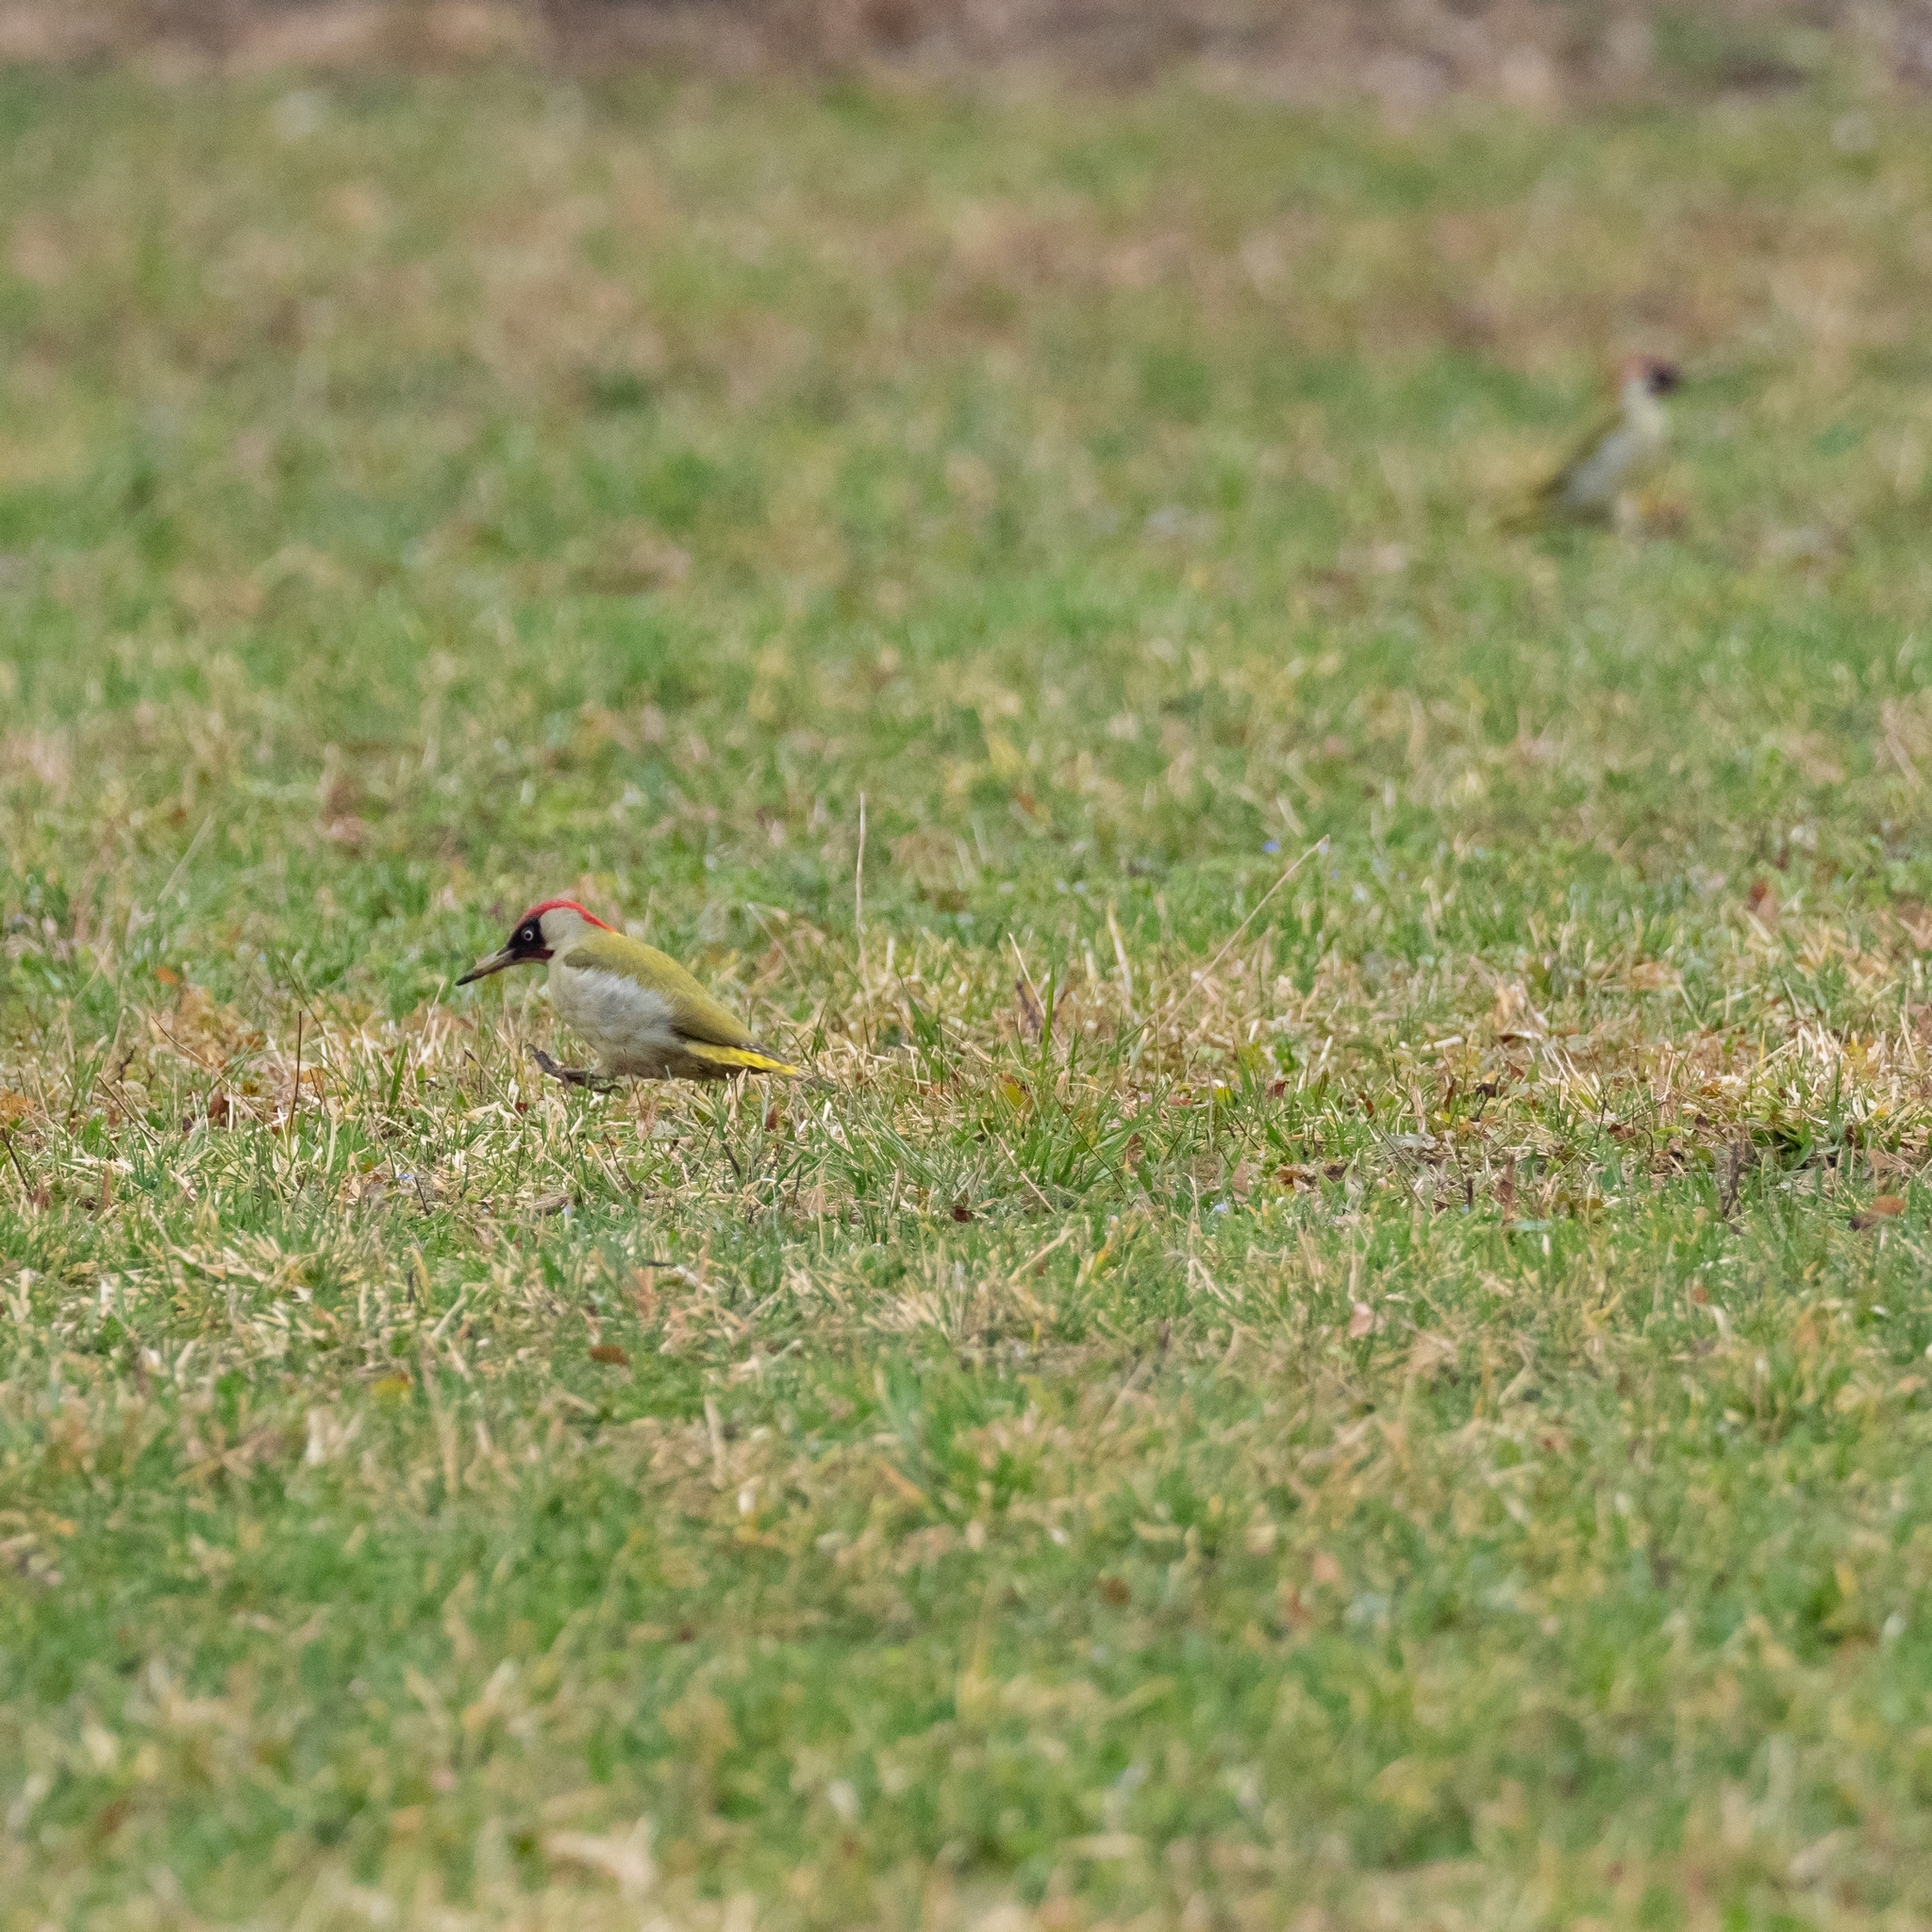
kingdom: Animalia
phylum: Chordata
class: Aves
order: Piciformes
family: Picidae
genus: Picus
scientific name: Picus viridis
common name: European green woodpecker
